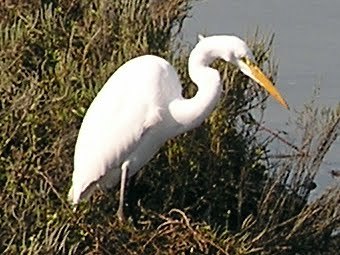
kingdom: Animalia
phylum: Chordata
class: Aves
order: Pelecaniformes
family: Ardeidae
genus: Ardea
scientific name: Ardea alba
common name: Great egret
